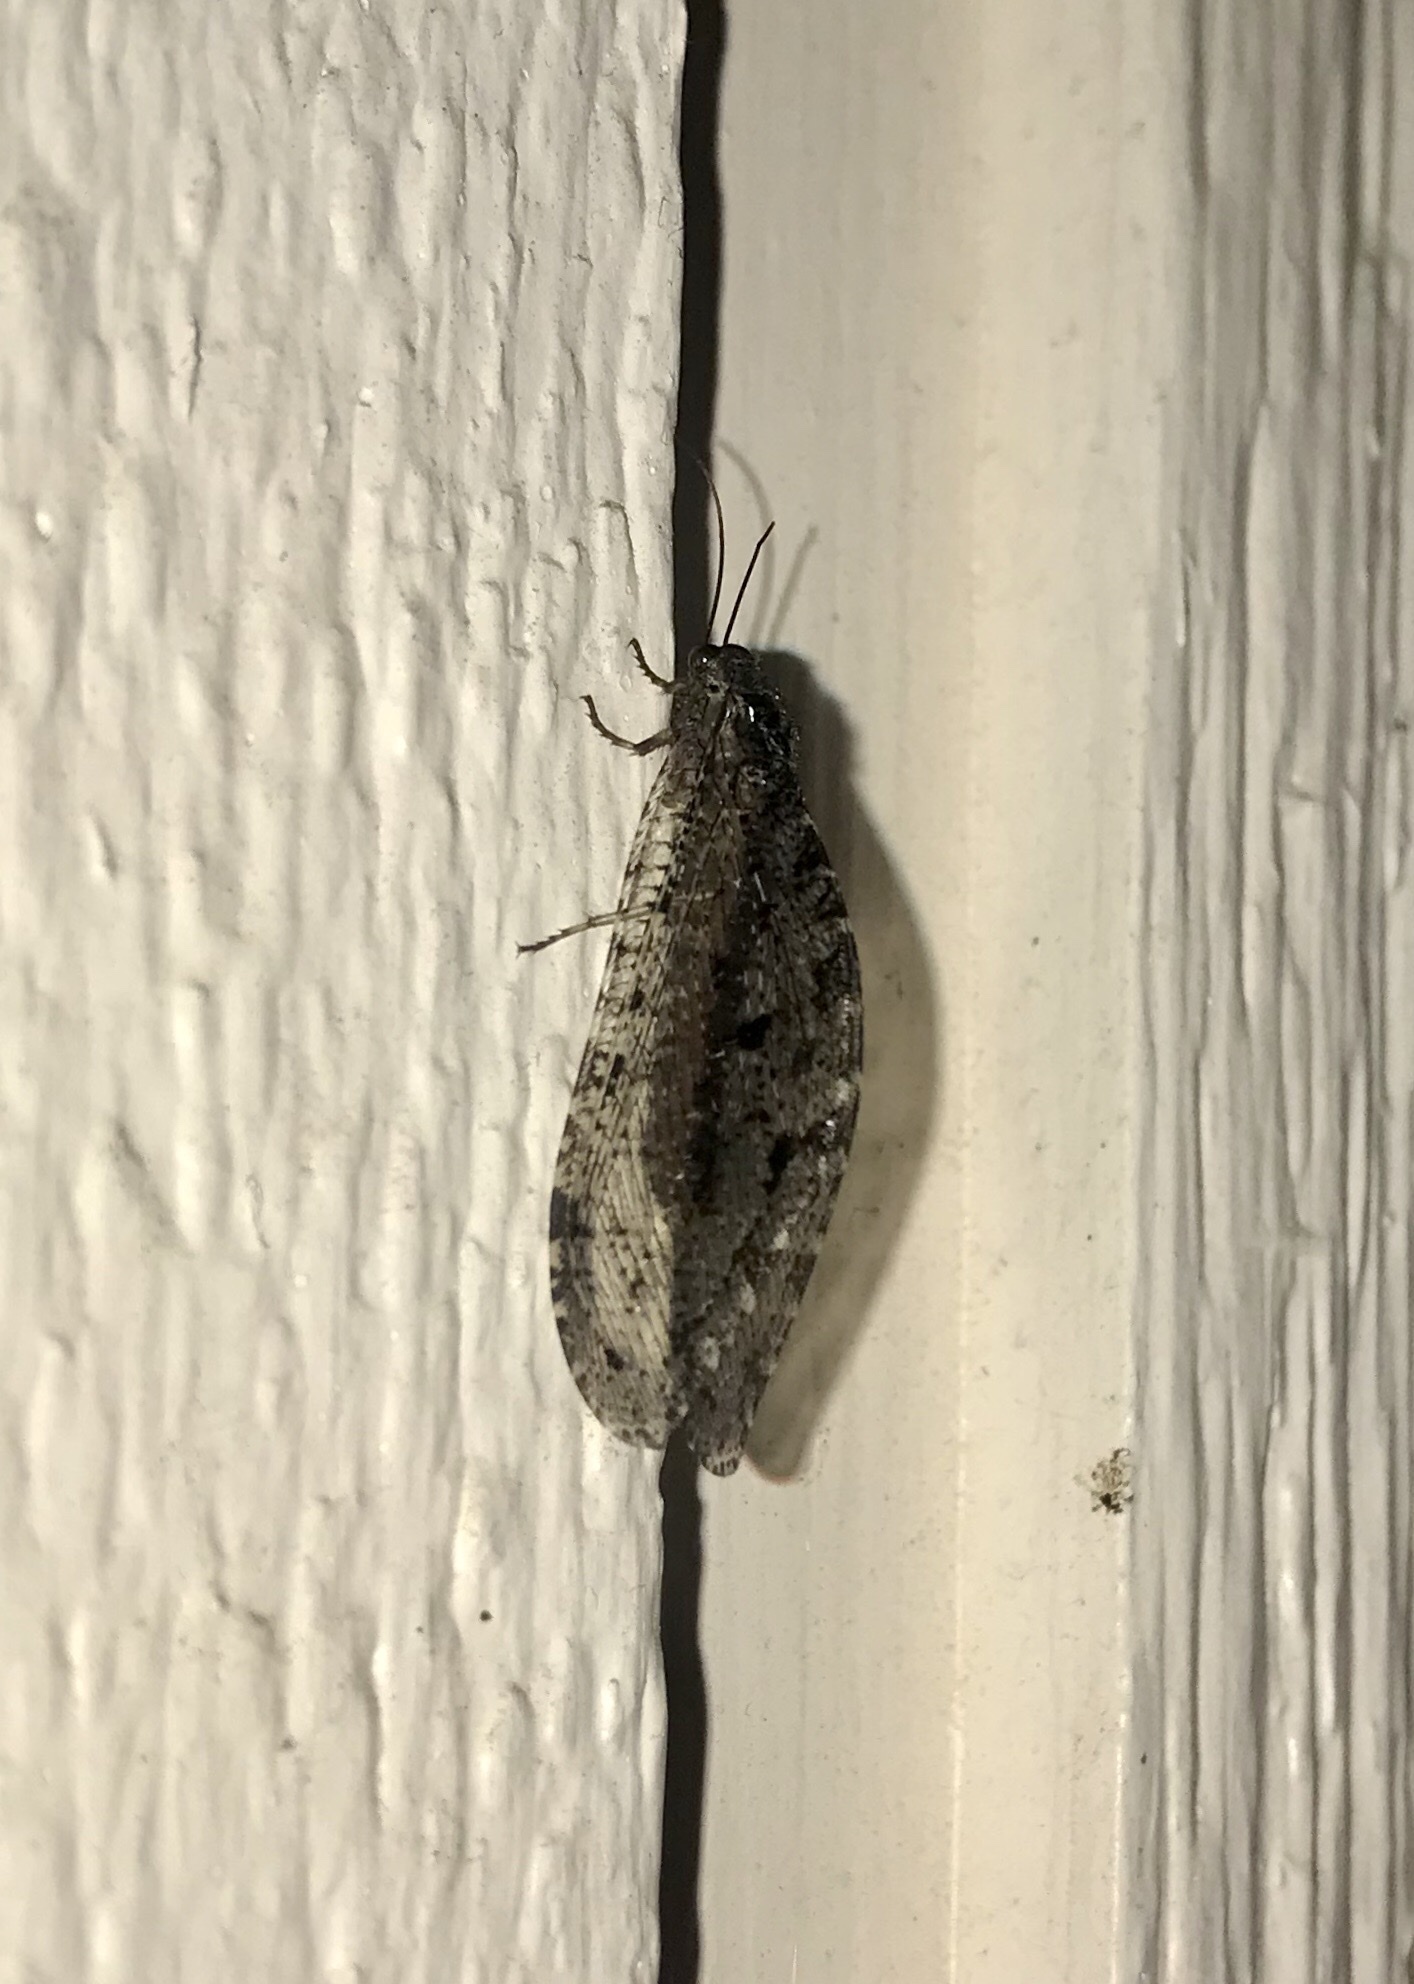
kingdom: Animalia
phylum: Arthropoda
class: Insecta
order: Neuroptera
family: Ithonidae
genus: Polystoechotes
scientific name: Polystoechotes punctata
